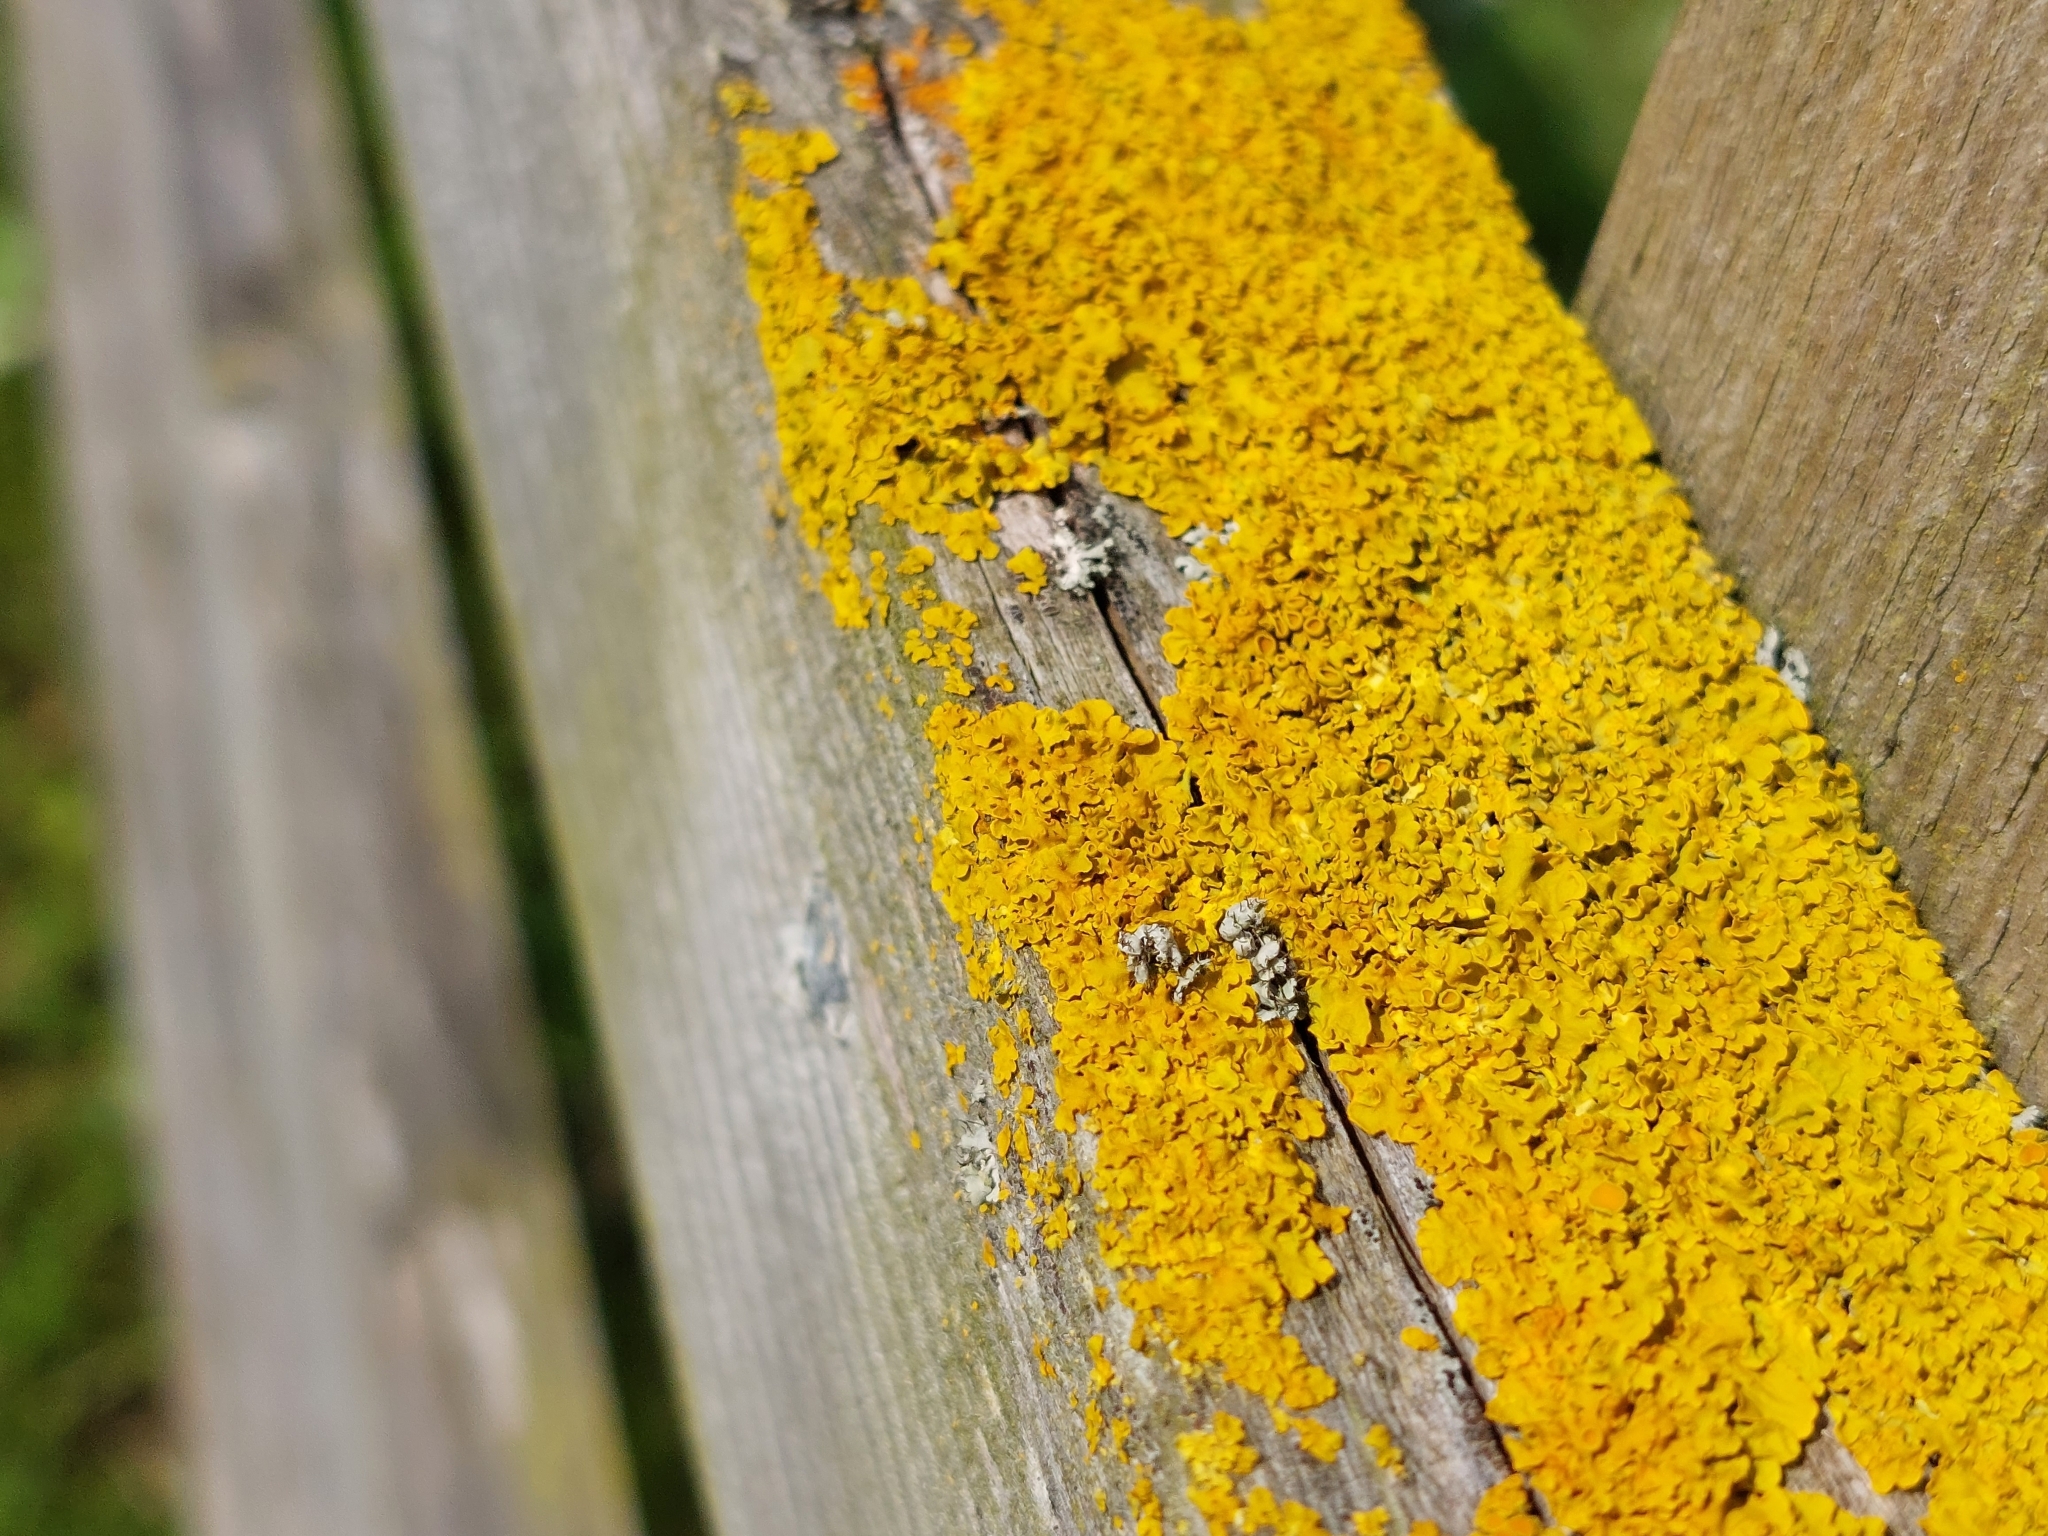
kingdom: Fungi
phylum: Ascomycota
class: Lecanoromycetes
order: Teloschistales
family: Teloschistaceae
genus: Xanthoria
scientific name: Xanthoria parietina
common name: Common orange lichen
